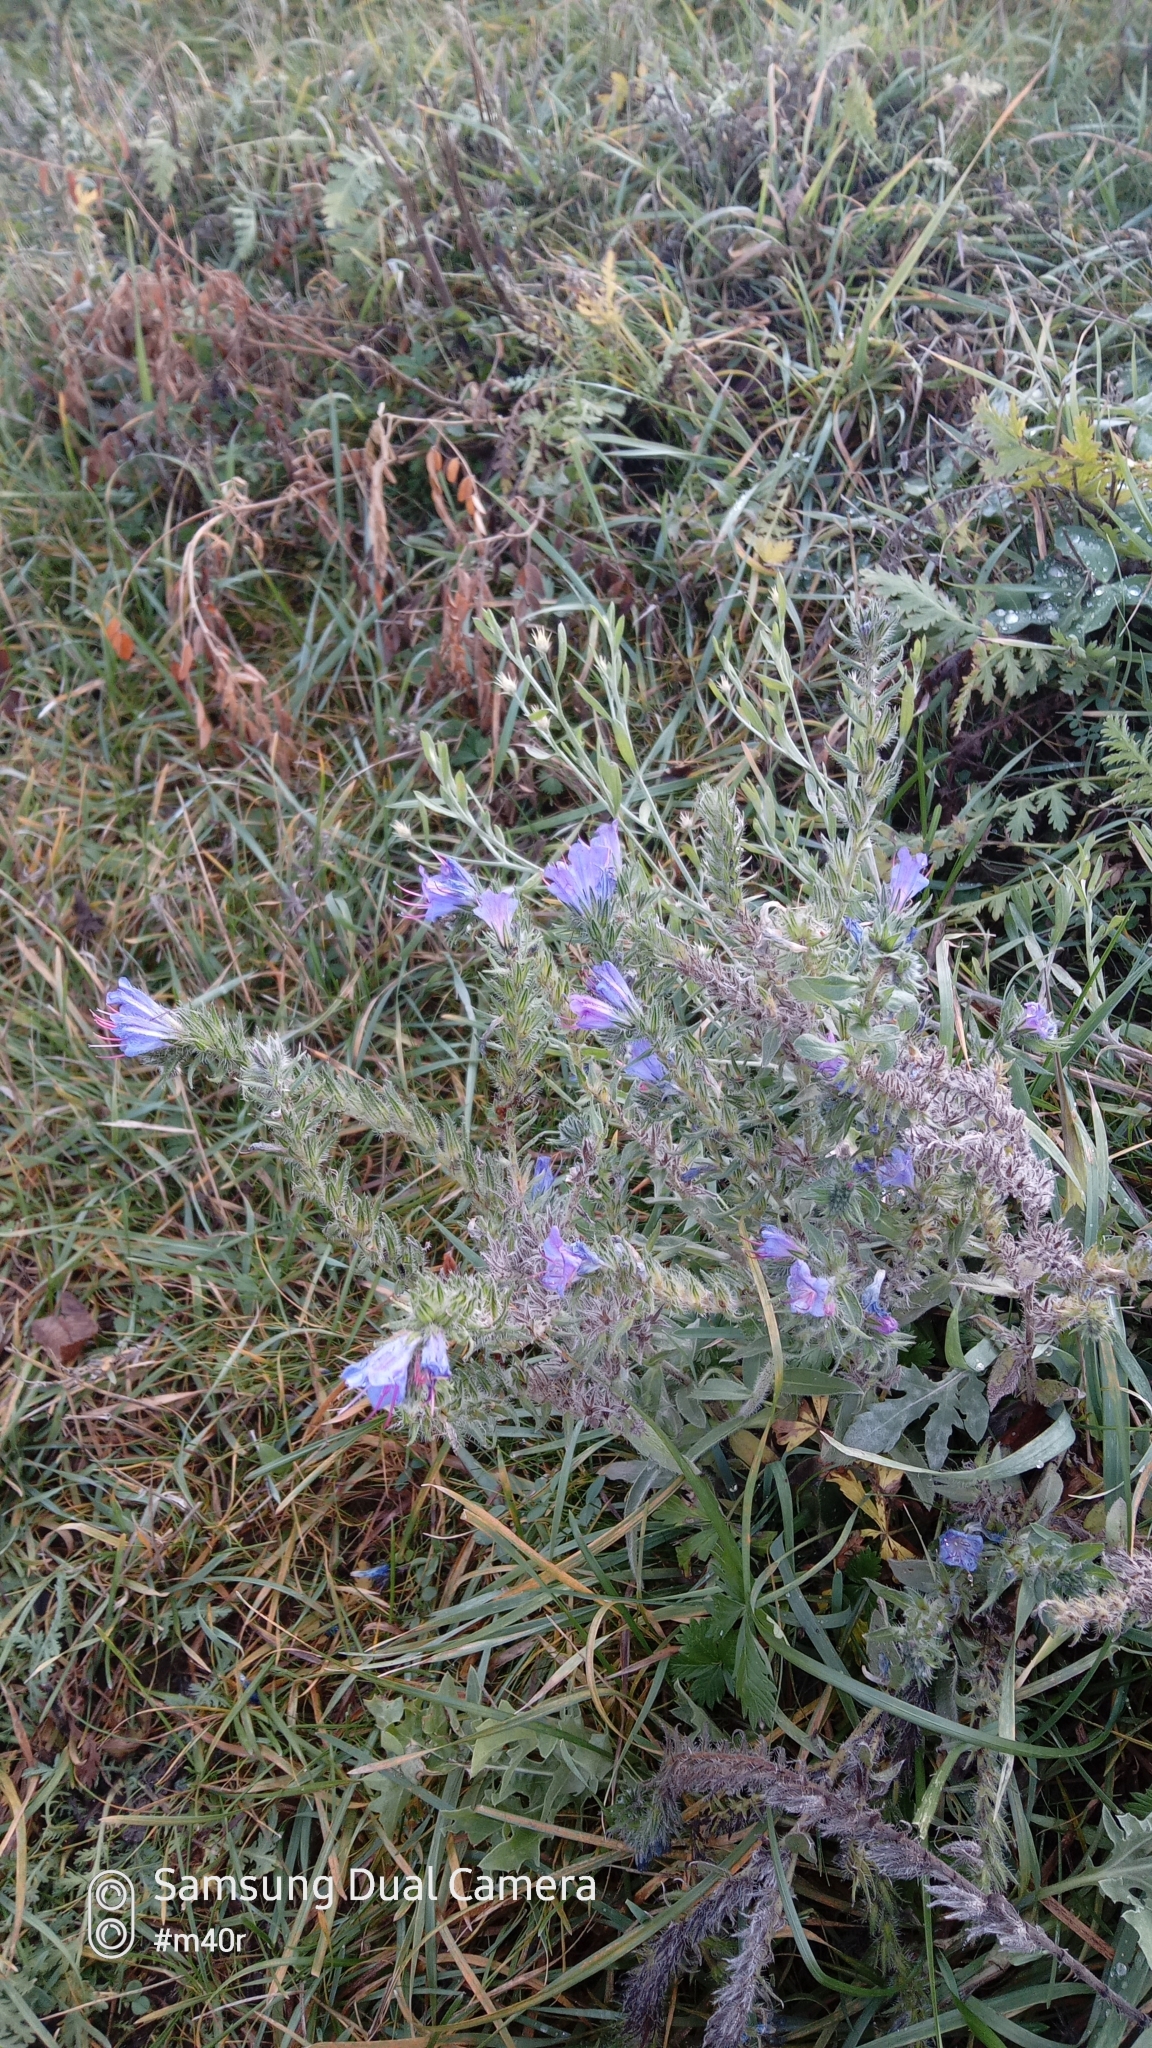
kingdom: Plantae
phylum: Tracheophyta
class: Magnoliopsida
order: Boraginales
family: Boraginaceae
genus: Echium
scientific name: Echium vulgare
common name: Common viper's bugloss
